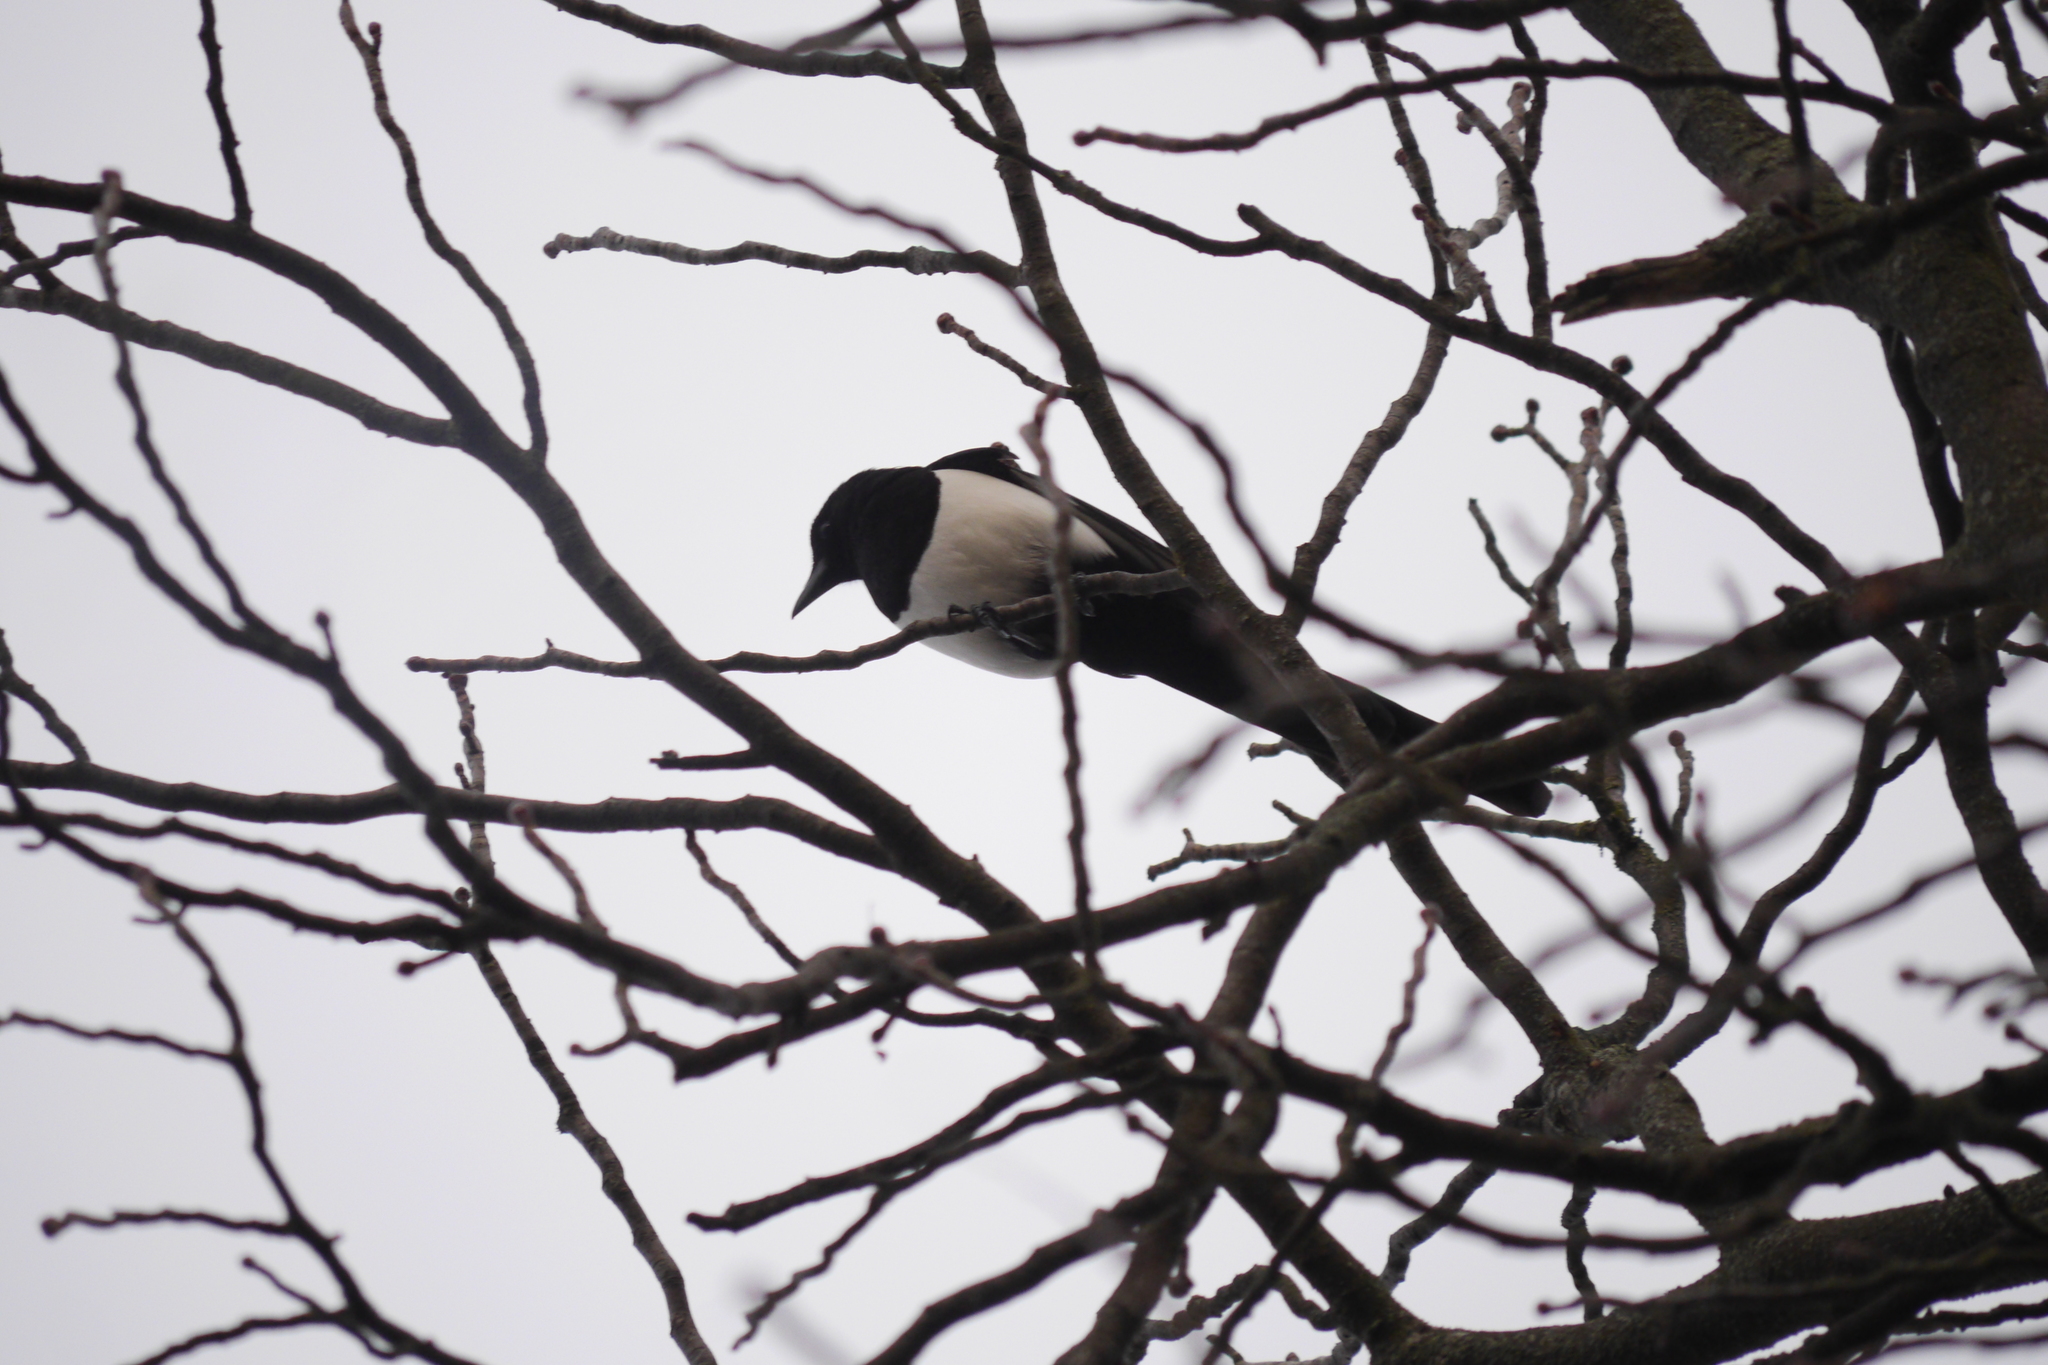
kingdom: Animalia
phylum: Chordata
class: Aves
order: Passeriformes
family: Corvidae
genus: Pica
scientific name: Pica pica
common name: Eurasian magpie
